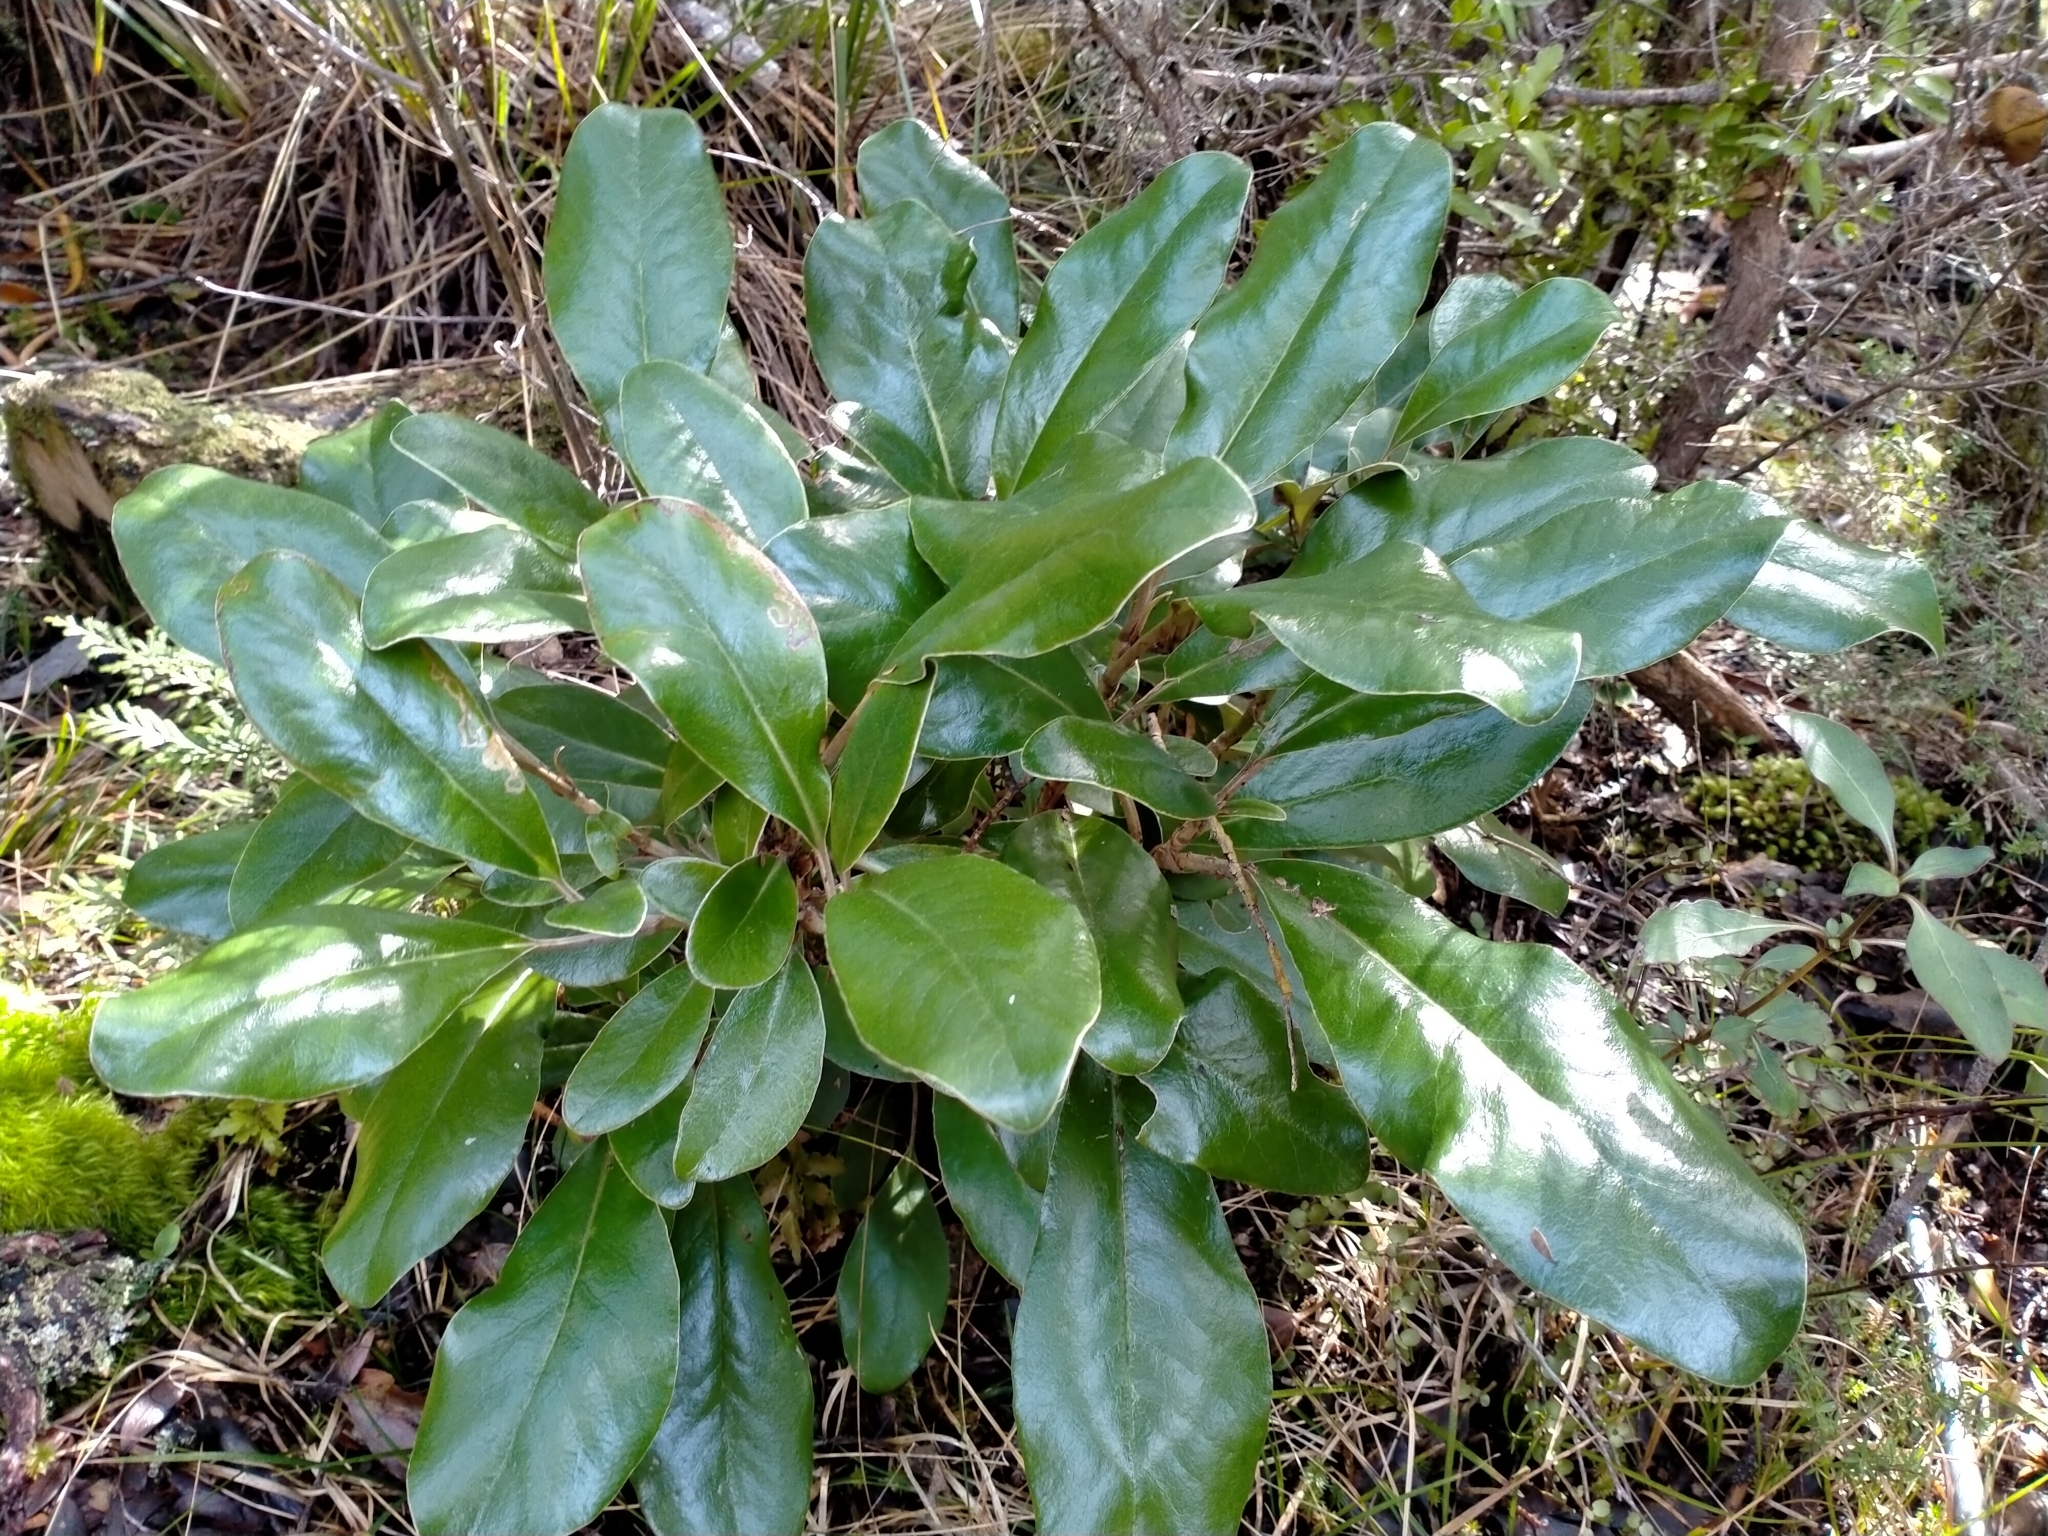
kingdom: Plantae
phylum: Tracheophyta
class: Magnoliopsida
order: Asterales
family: Asteraceae
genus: Brachyglottis
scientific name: Brachyglottis buchananii
